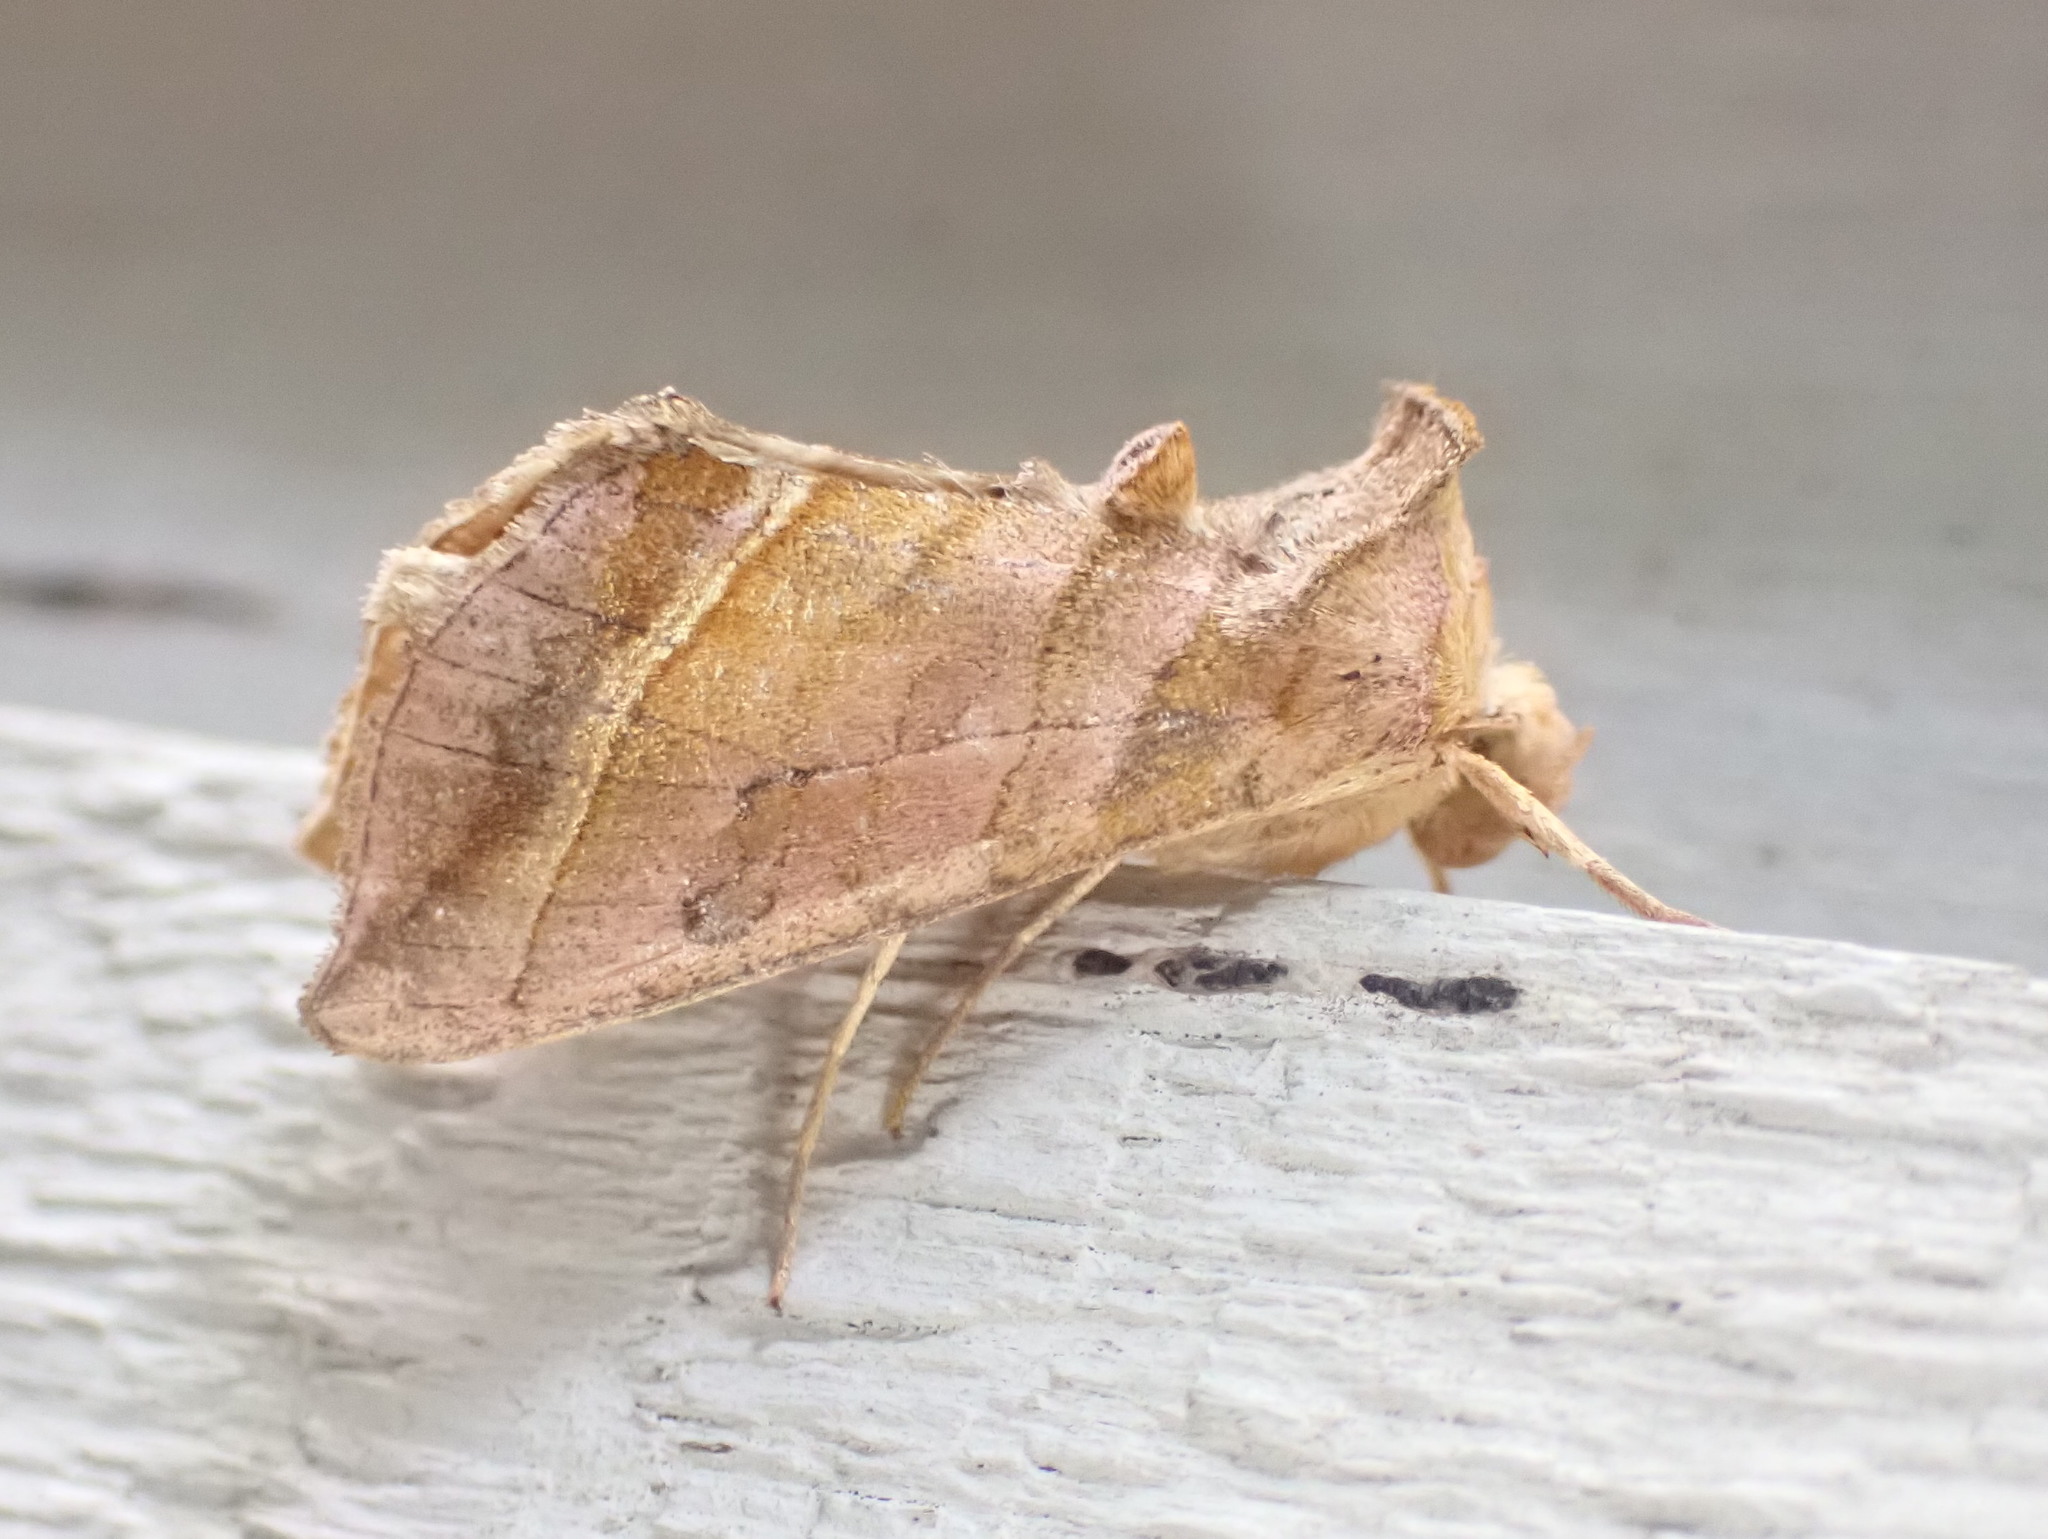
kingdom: Animalia
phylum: Arthropoda
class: Insecta
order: Lepidoptera
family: Noctuidae
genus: Diachrysia
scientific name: Diachrysia aereoides
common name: Dark-spotted looper moth
